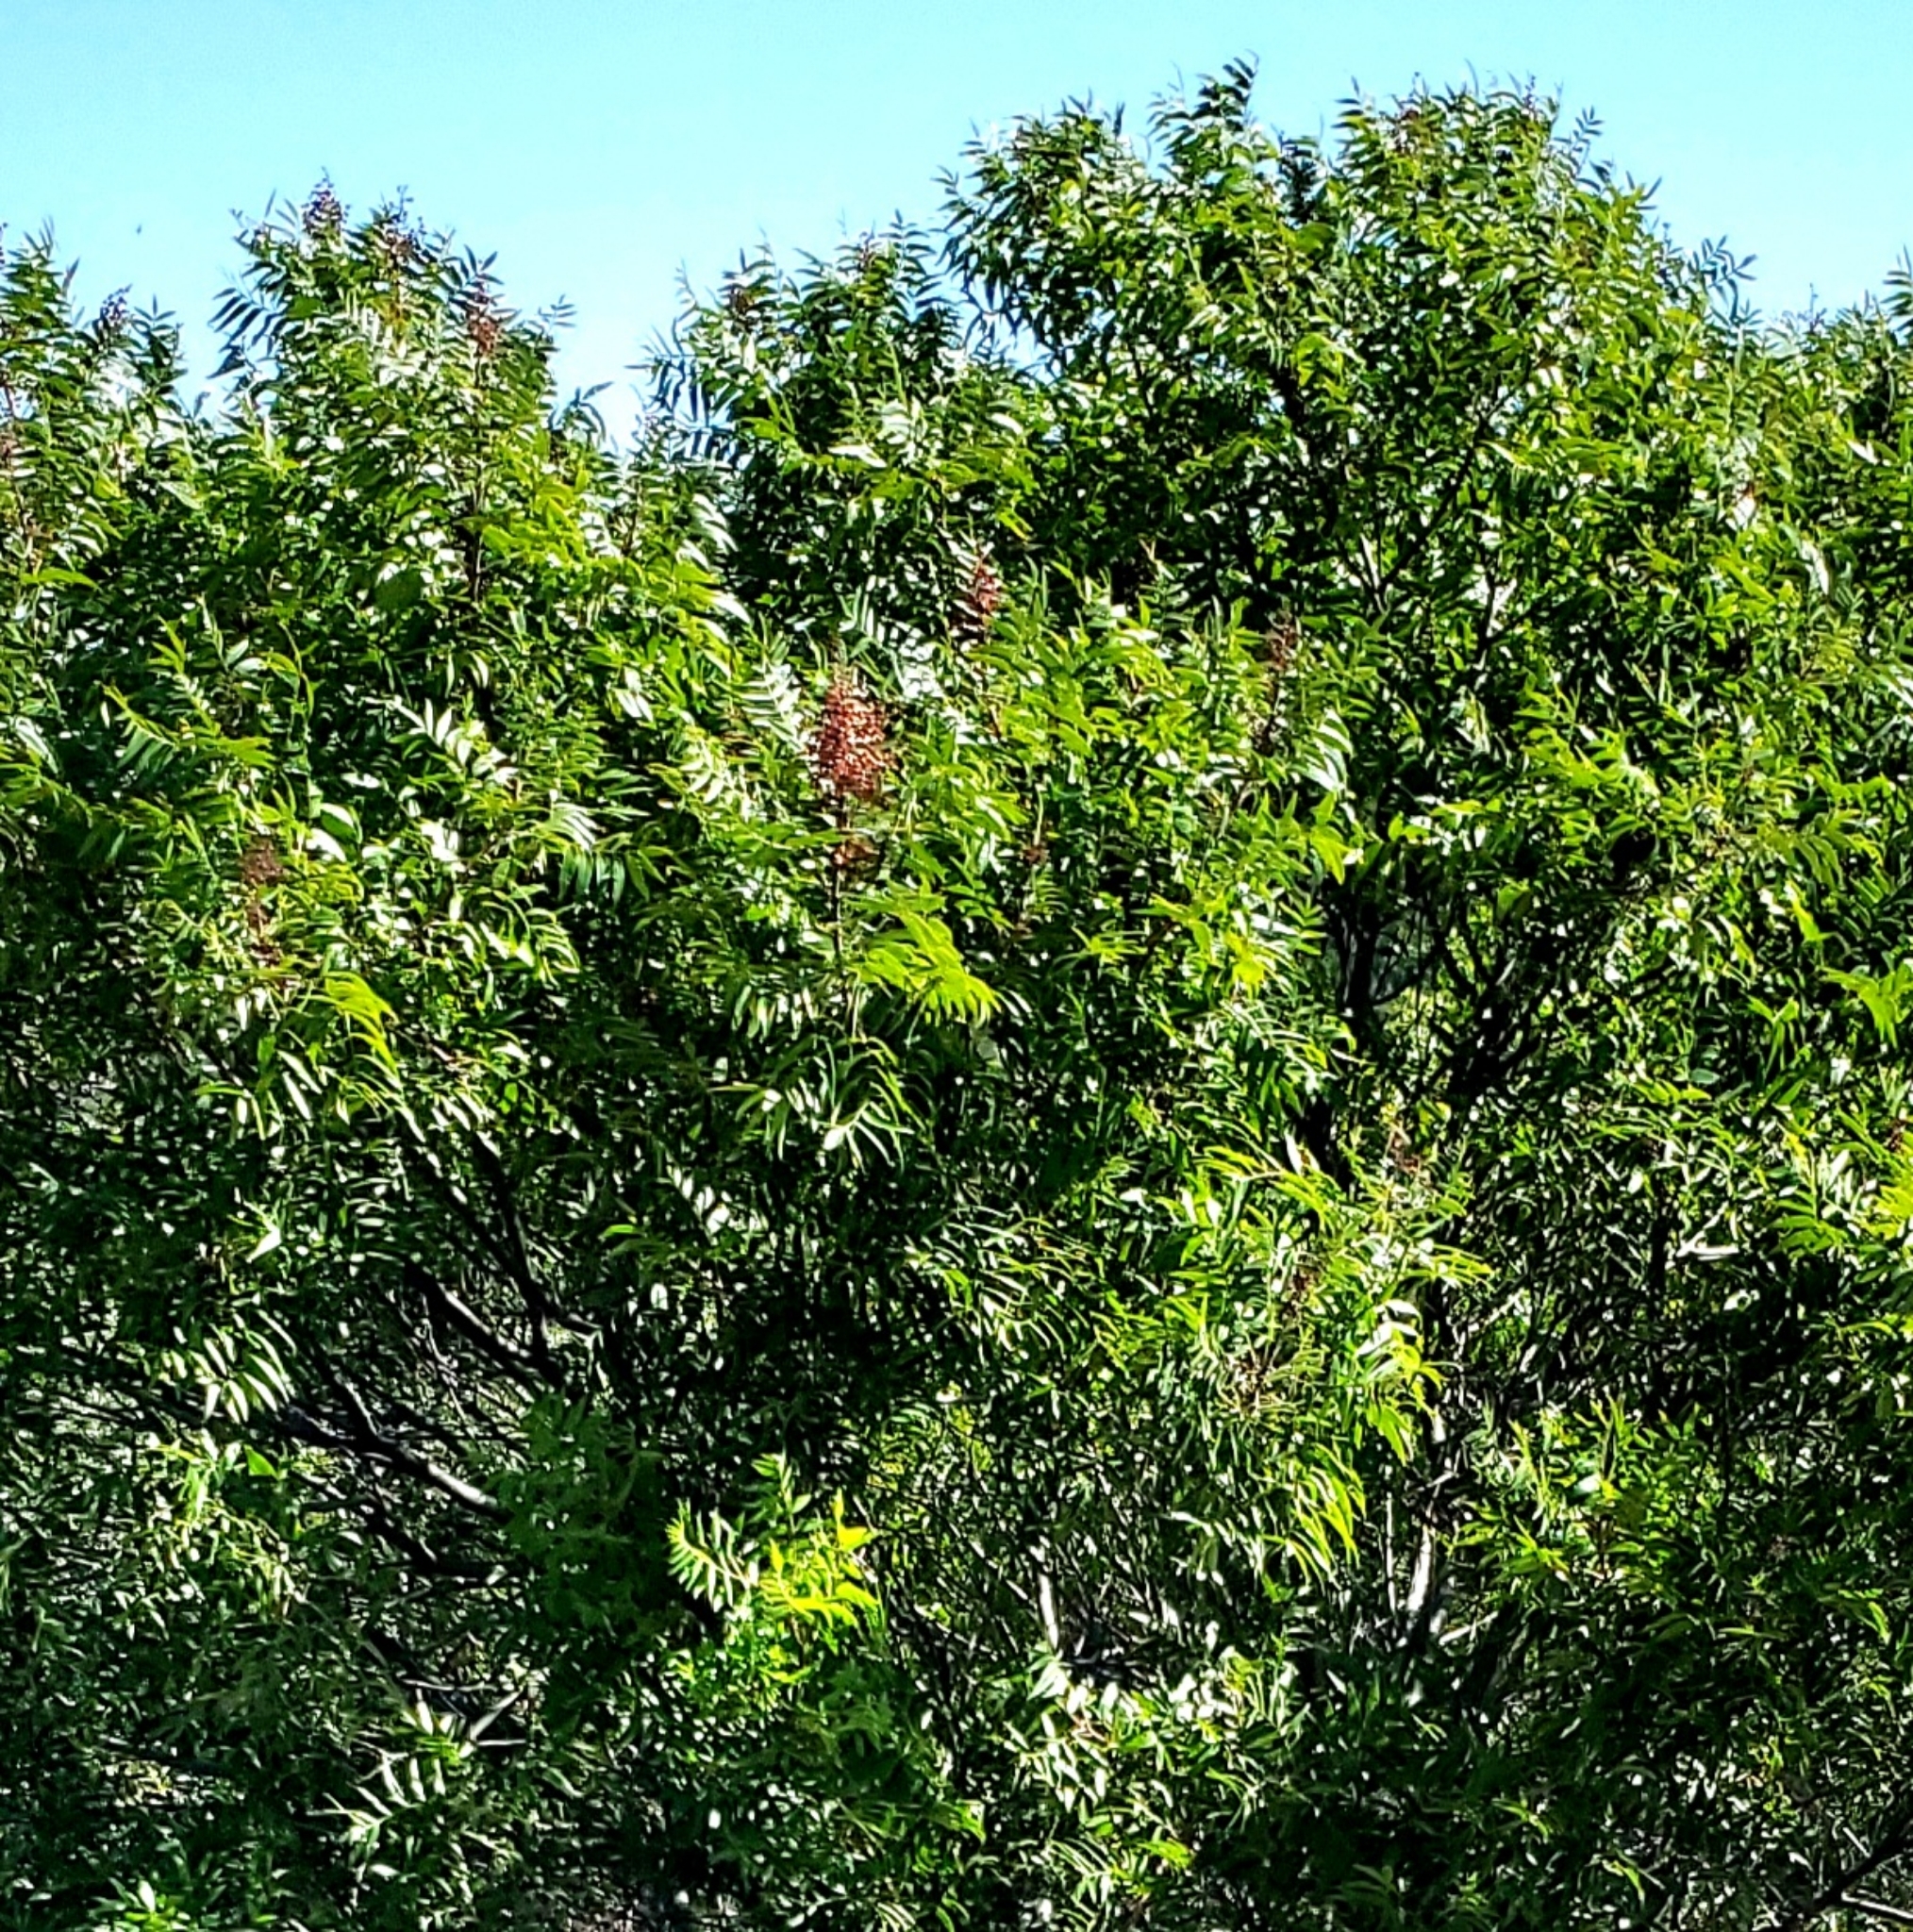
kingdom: Plantae
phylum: Tracheophyta
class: Magnoliopsida
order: Sapindales
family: Anacardiaceae
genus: Rhus
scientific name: Rhus lanceolata
